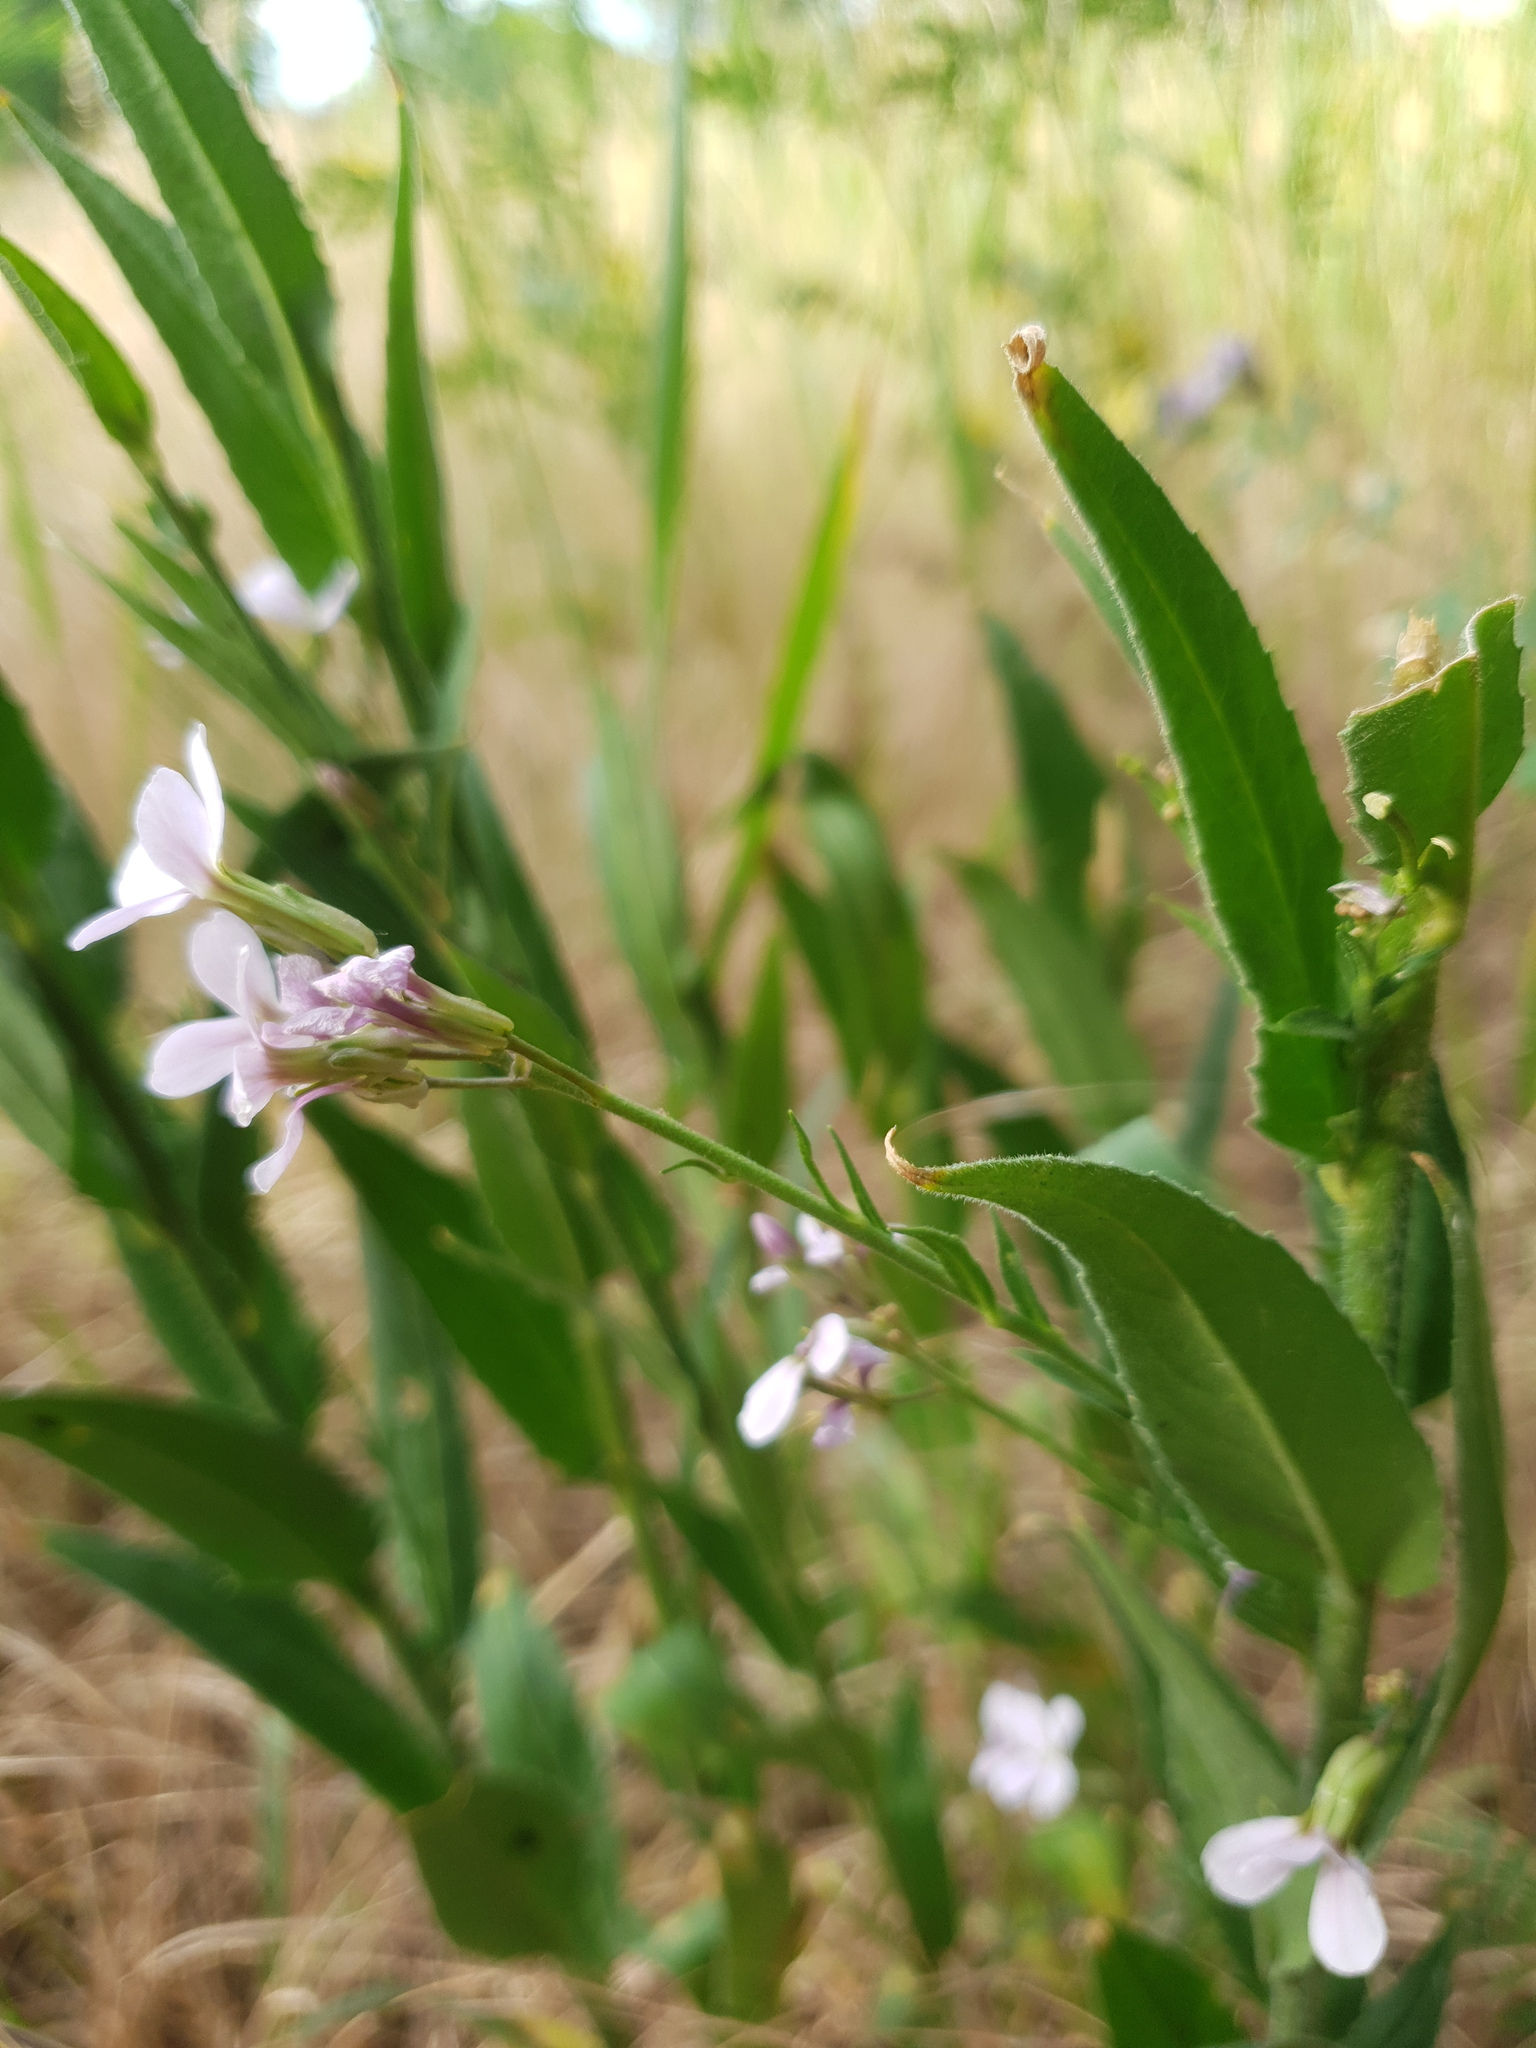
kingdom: Plantae
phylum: Tracheophyta
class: Magnoliopsida
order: Brassicales
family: Brassicaceae
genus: Hesperis
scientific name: Hesperis matronalis
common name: Dame's-violet
